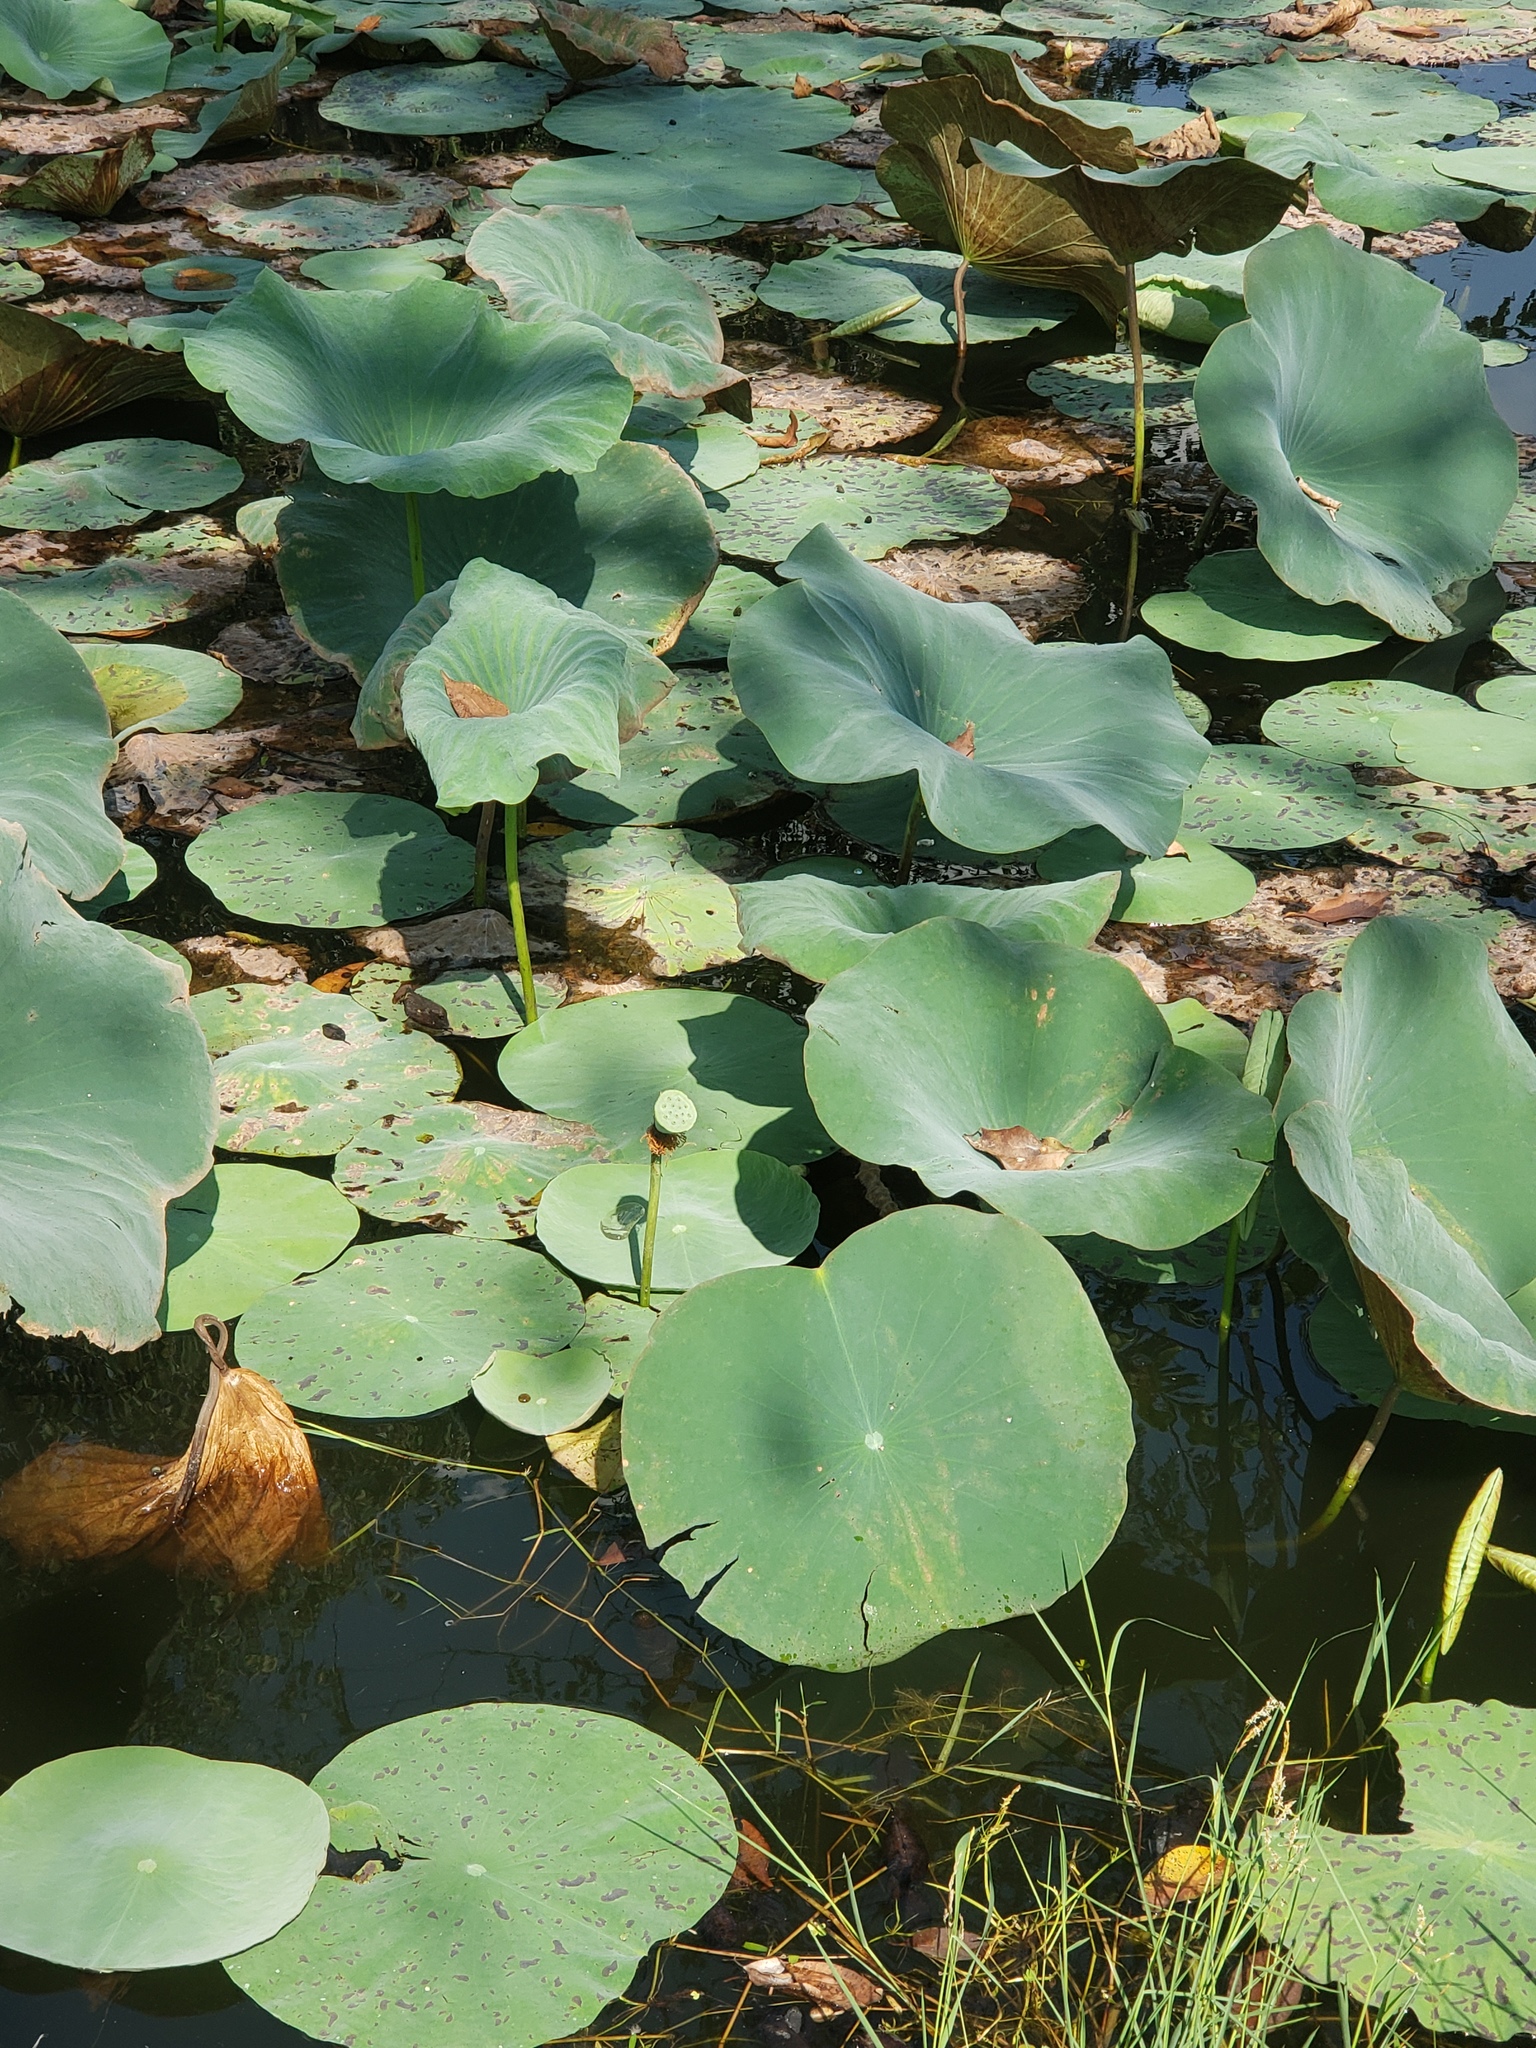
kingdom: Plantae
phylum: Tracheophyta
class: Magnoliopsida
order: Proteales
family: Nelumbonaceae
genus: Nelumbo
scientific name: Nelumbo nucifera
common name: Sacred lotus
